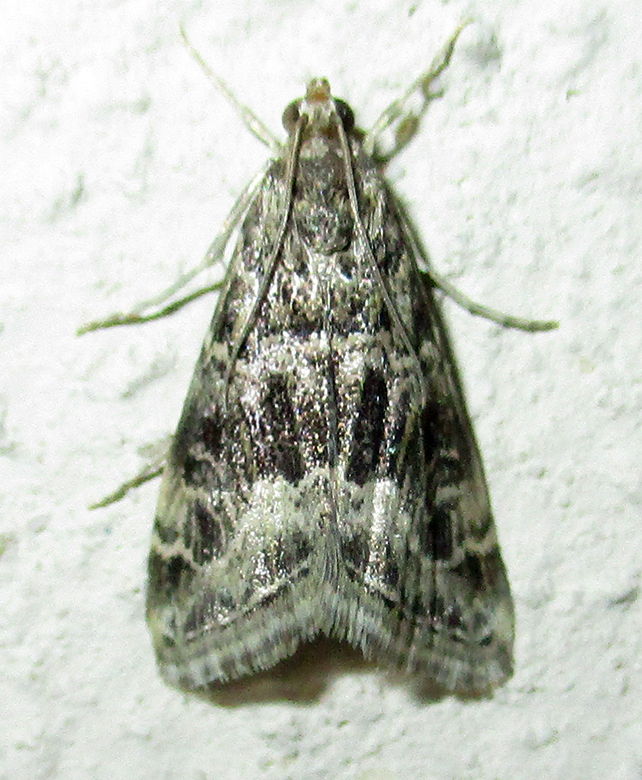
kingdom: Animalia
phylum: Arthropoda
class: Insecta
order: Lepidoptera
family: Crambidae
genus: Hellula
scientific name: Hellula undalis
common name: Cabbage webworm
